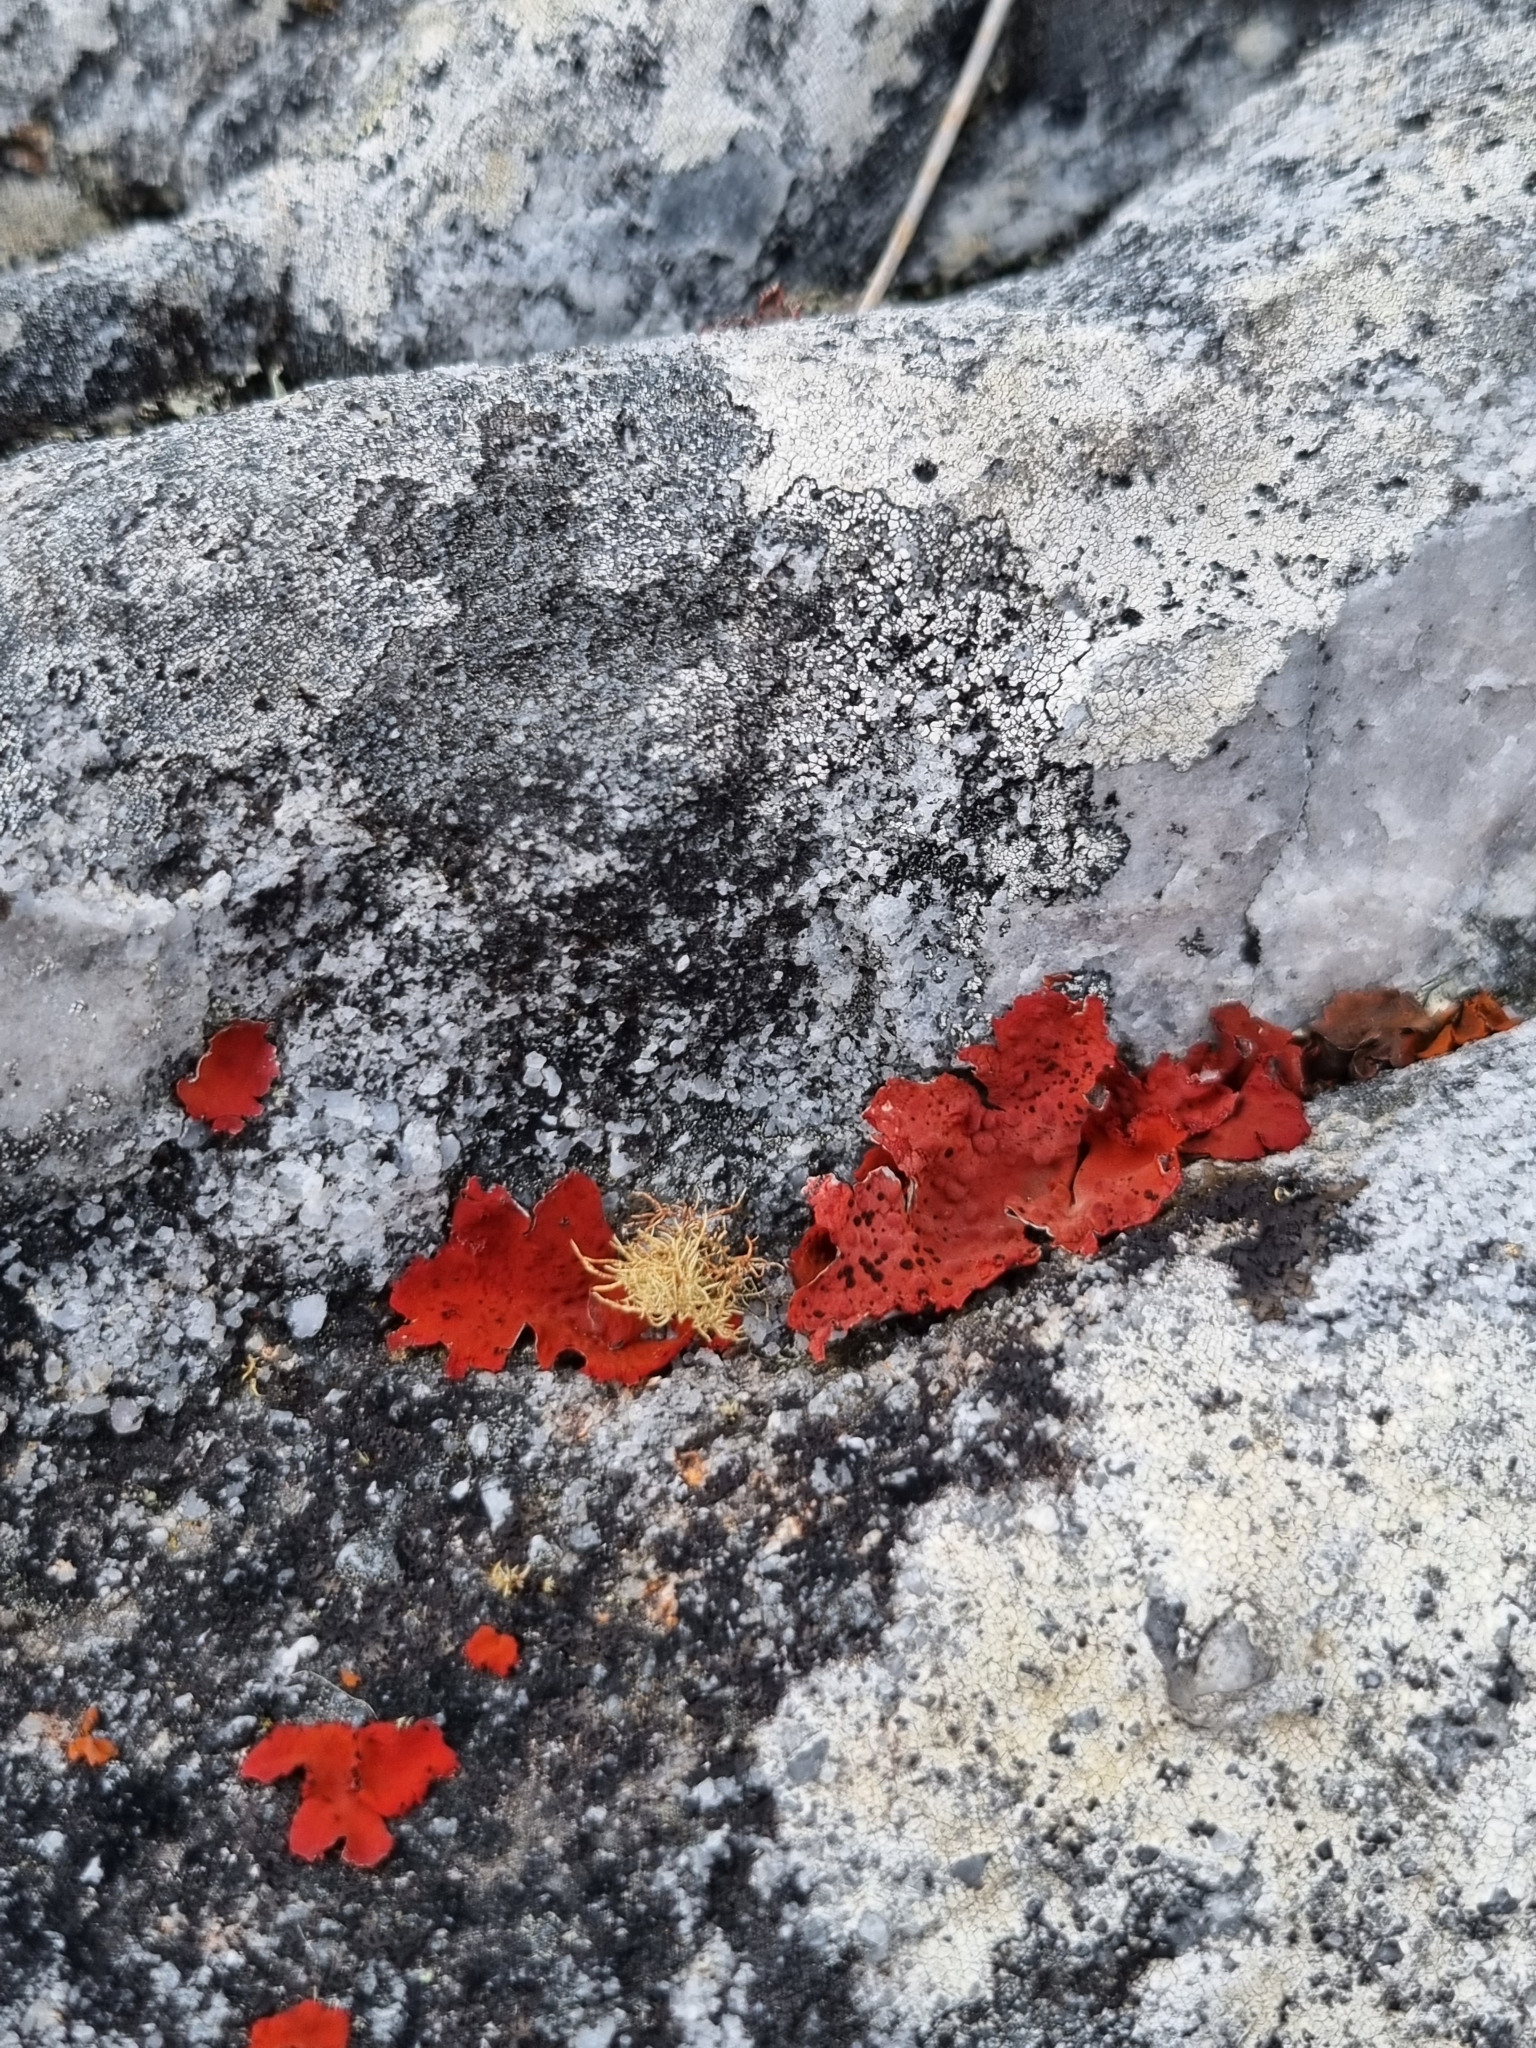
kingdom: Fungi
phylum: Ascomycota
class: Lecanoromycetes
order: Umbilicariales
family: Umbilicariaceae
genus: Lasallia
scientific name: Lasallia rubiginosa
